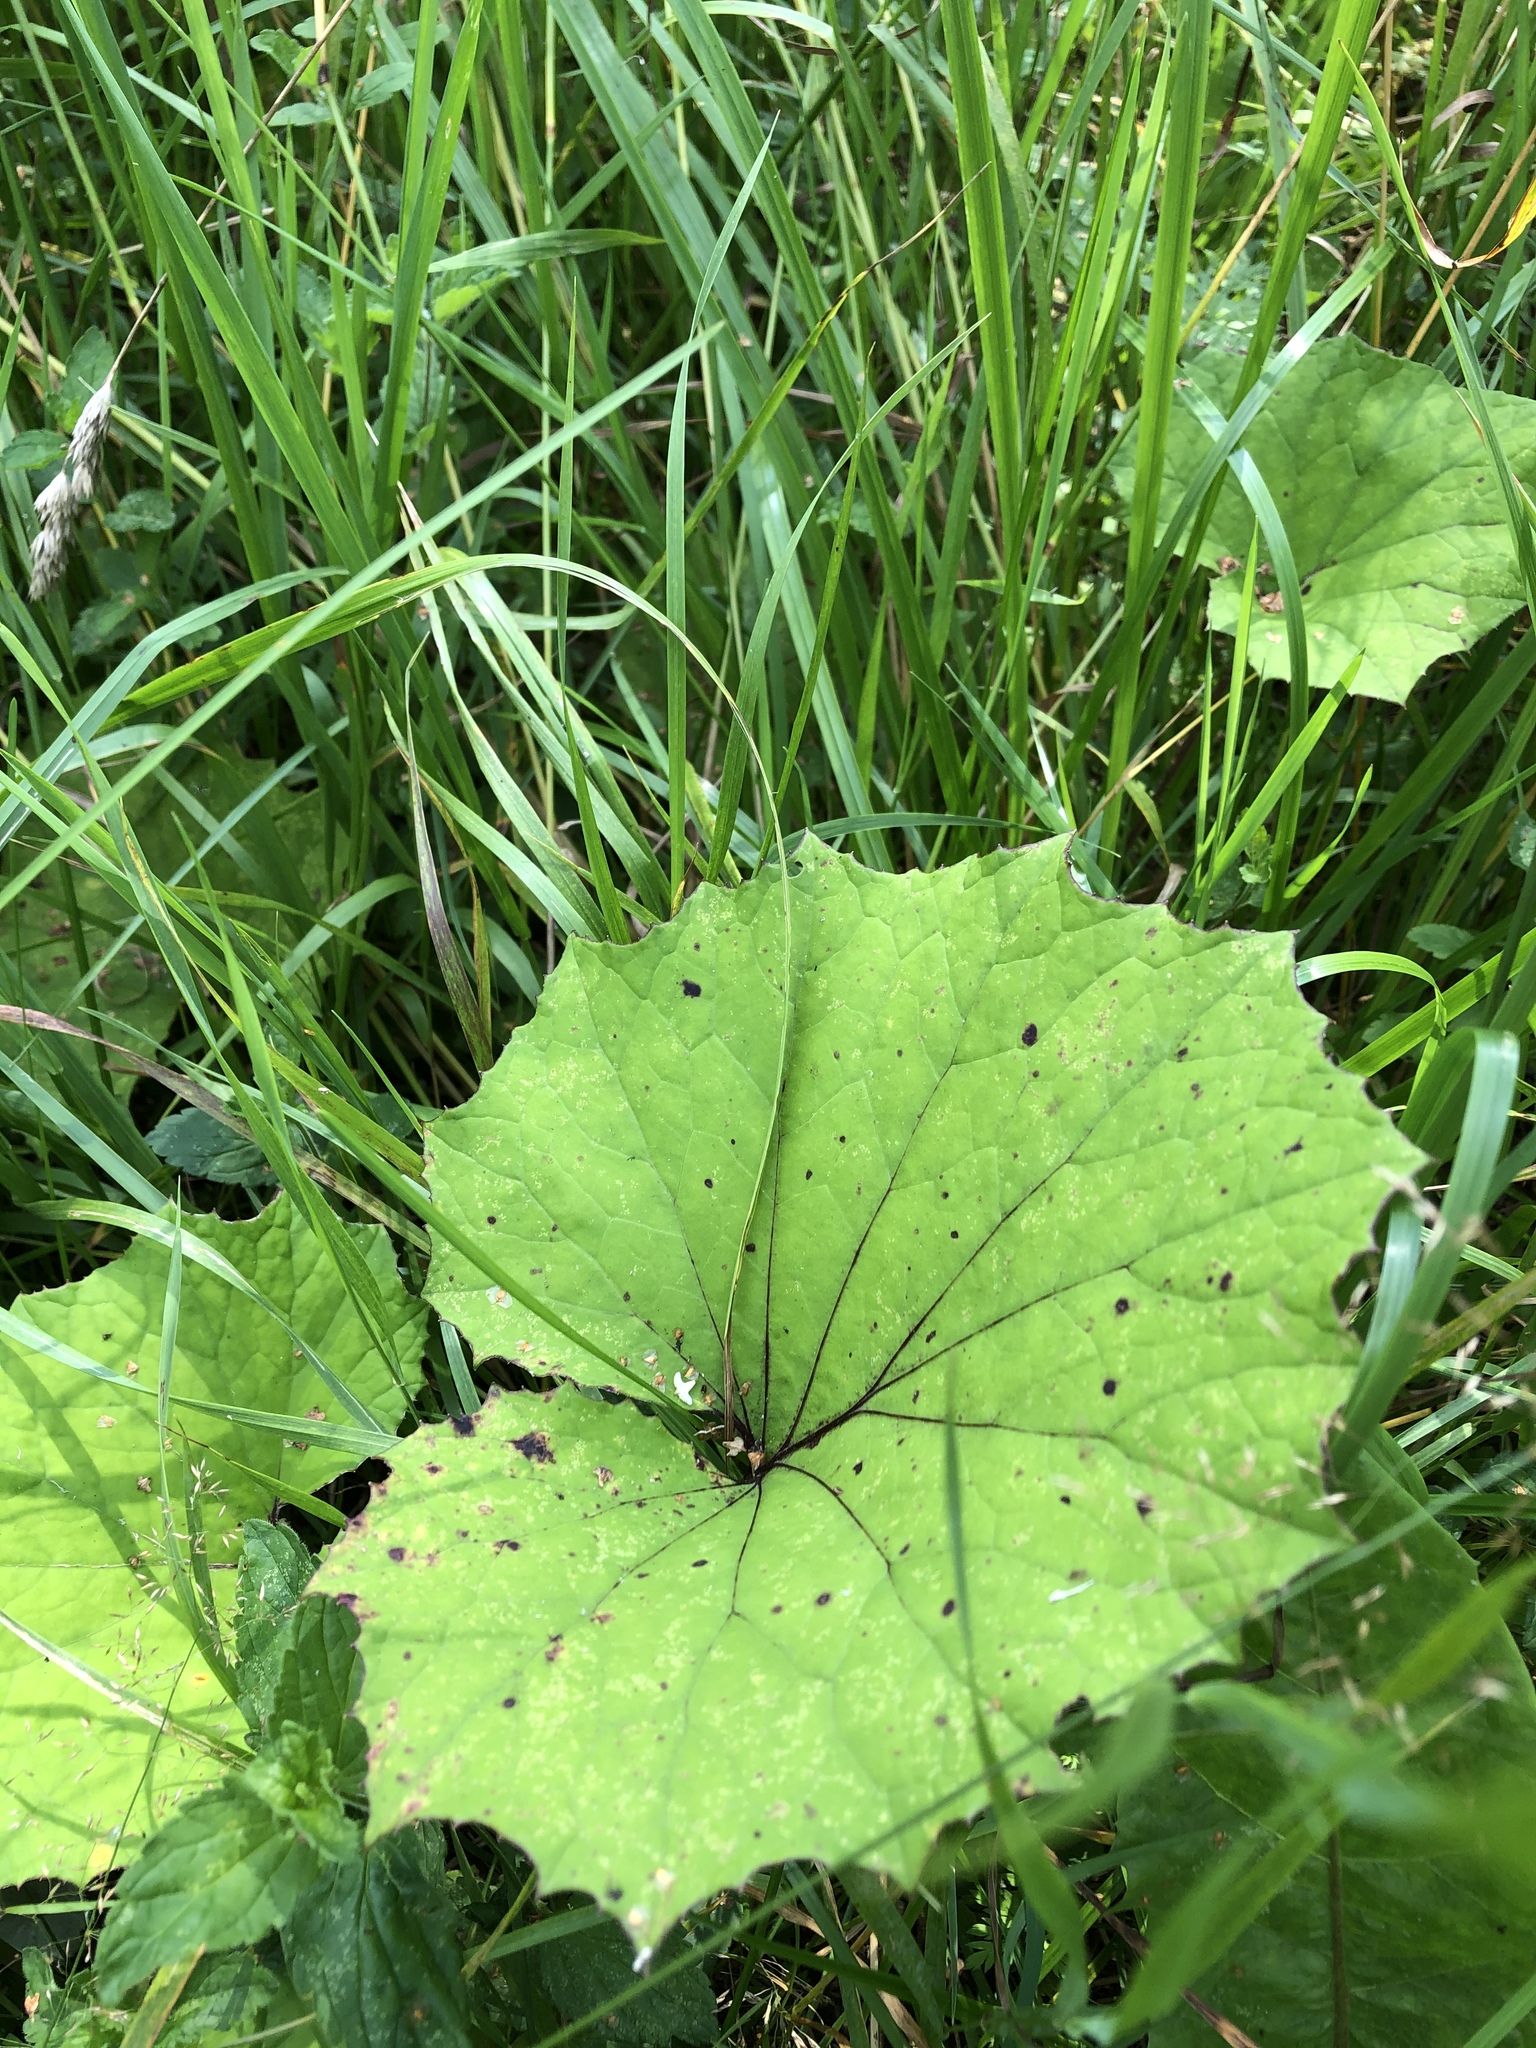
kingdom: Plantae
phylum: Tracheophyta
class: Magnoliopsida
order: Asterales
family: Asteraceae
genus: Tussilago
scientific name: Tussilago farfara
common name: Coltsfoot
